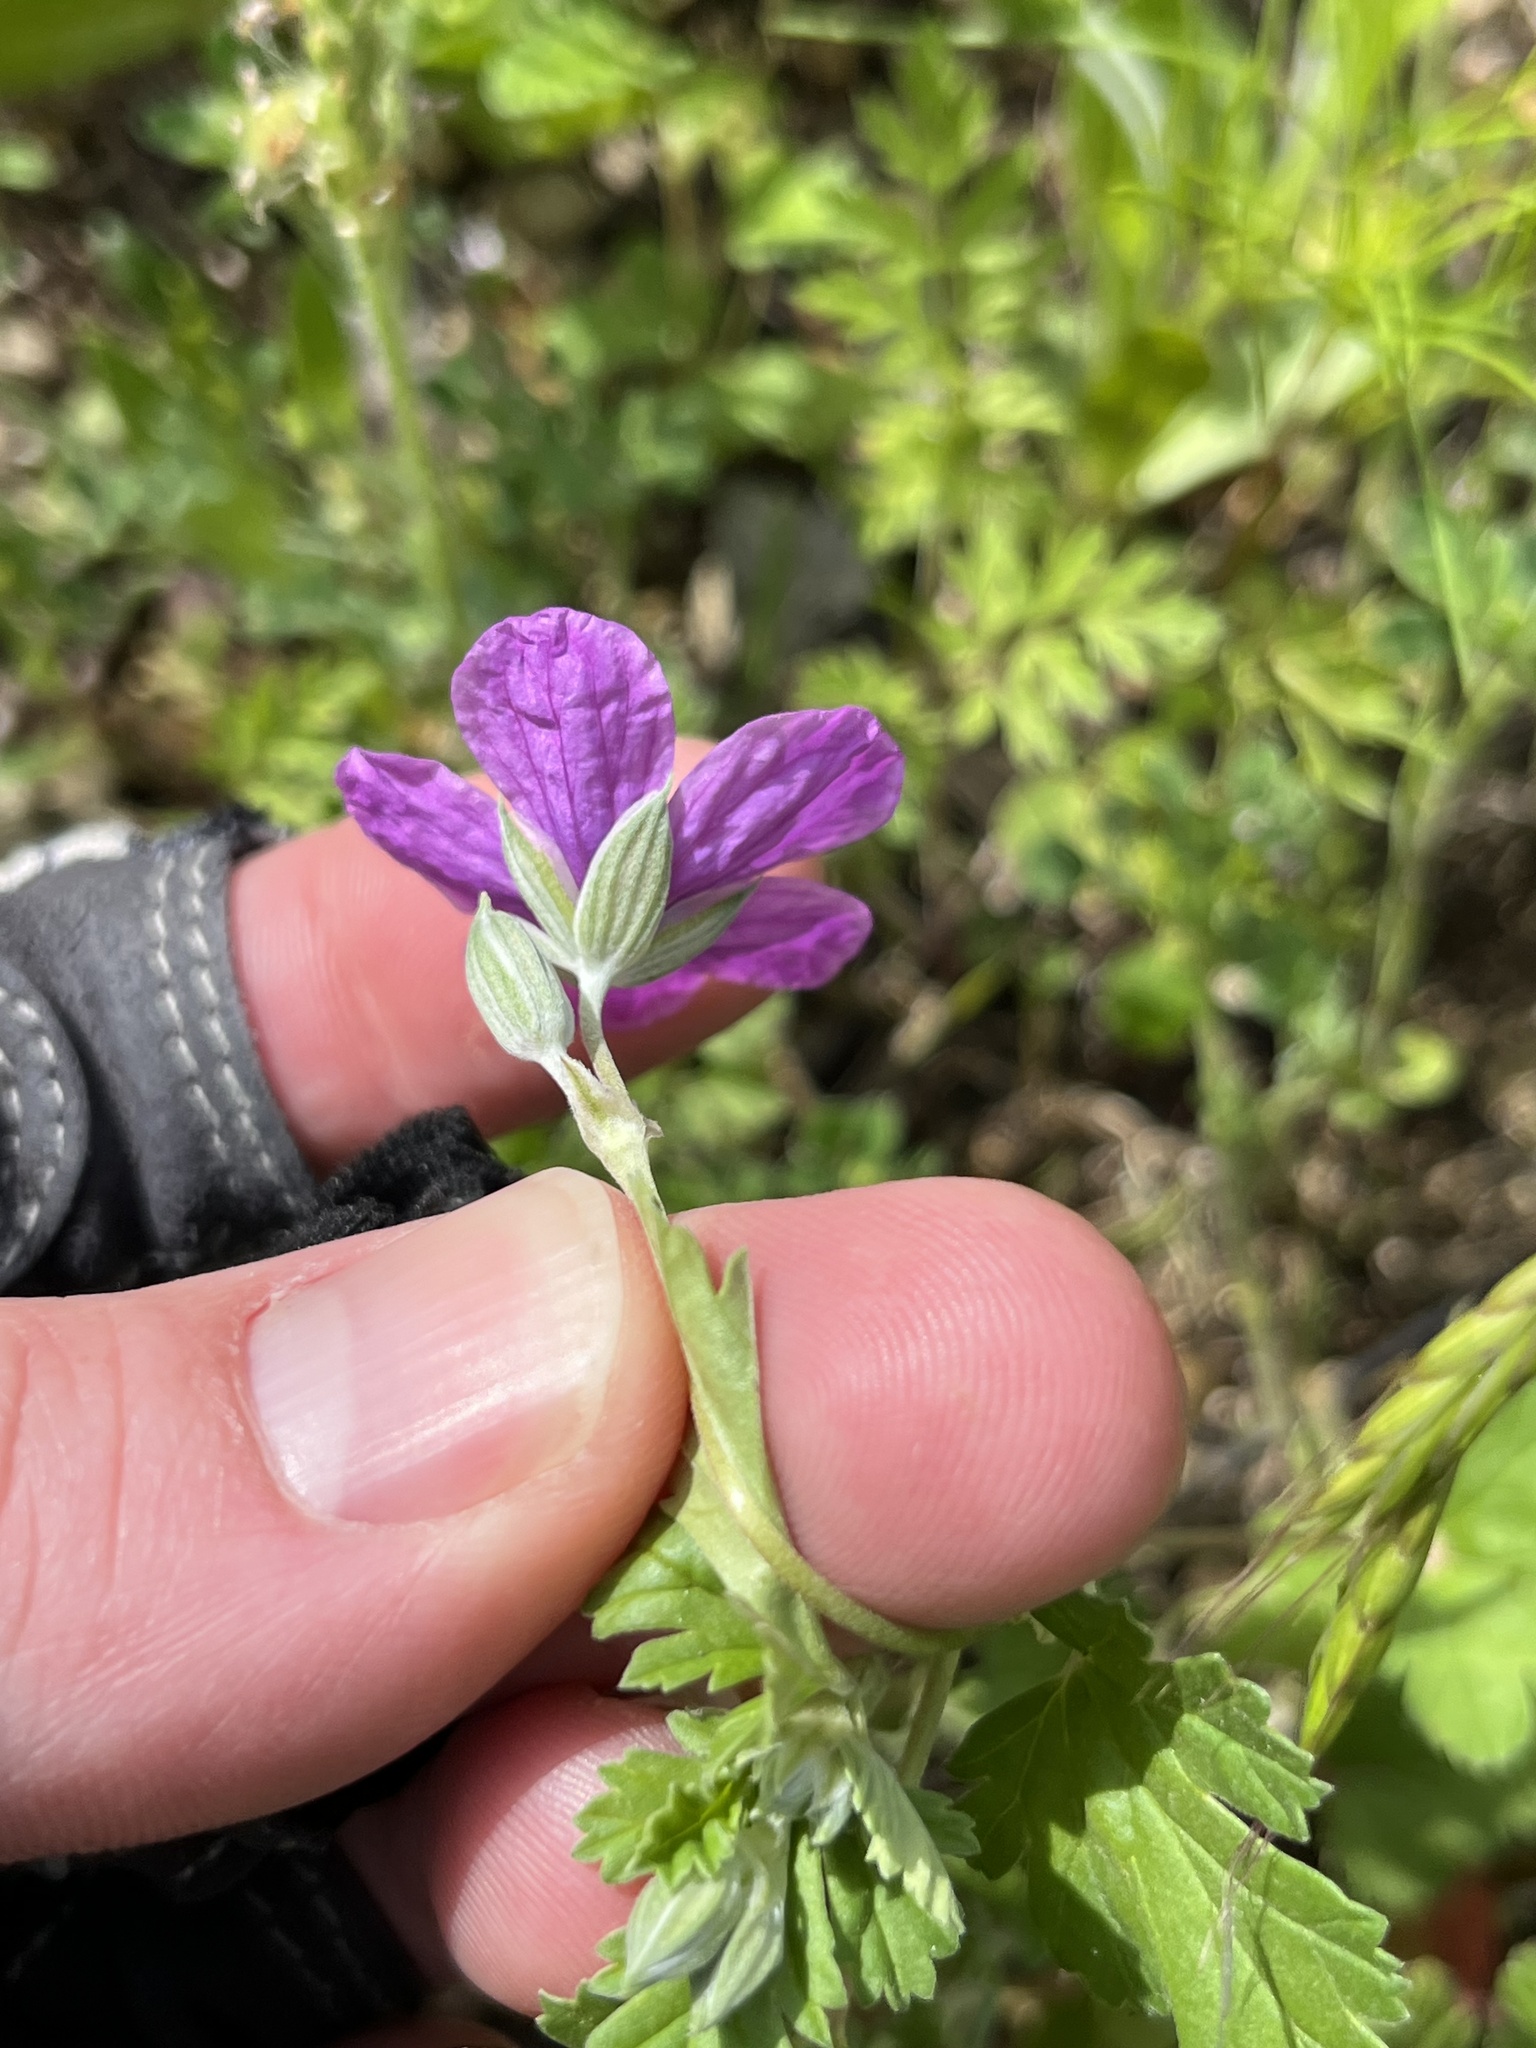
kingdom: Plantae
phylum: Tracheophyta
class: Magnoliopsida
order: Geraniales
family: Geraniaceae
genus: Erodium
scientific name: Erodium texanum
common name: Texas stork's-bill
